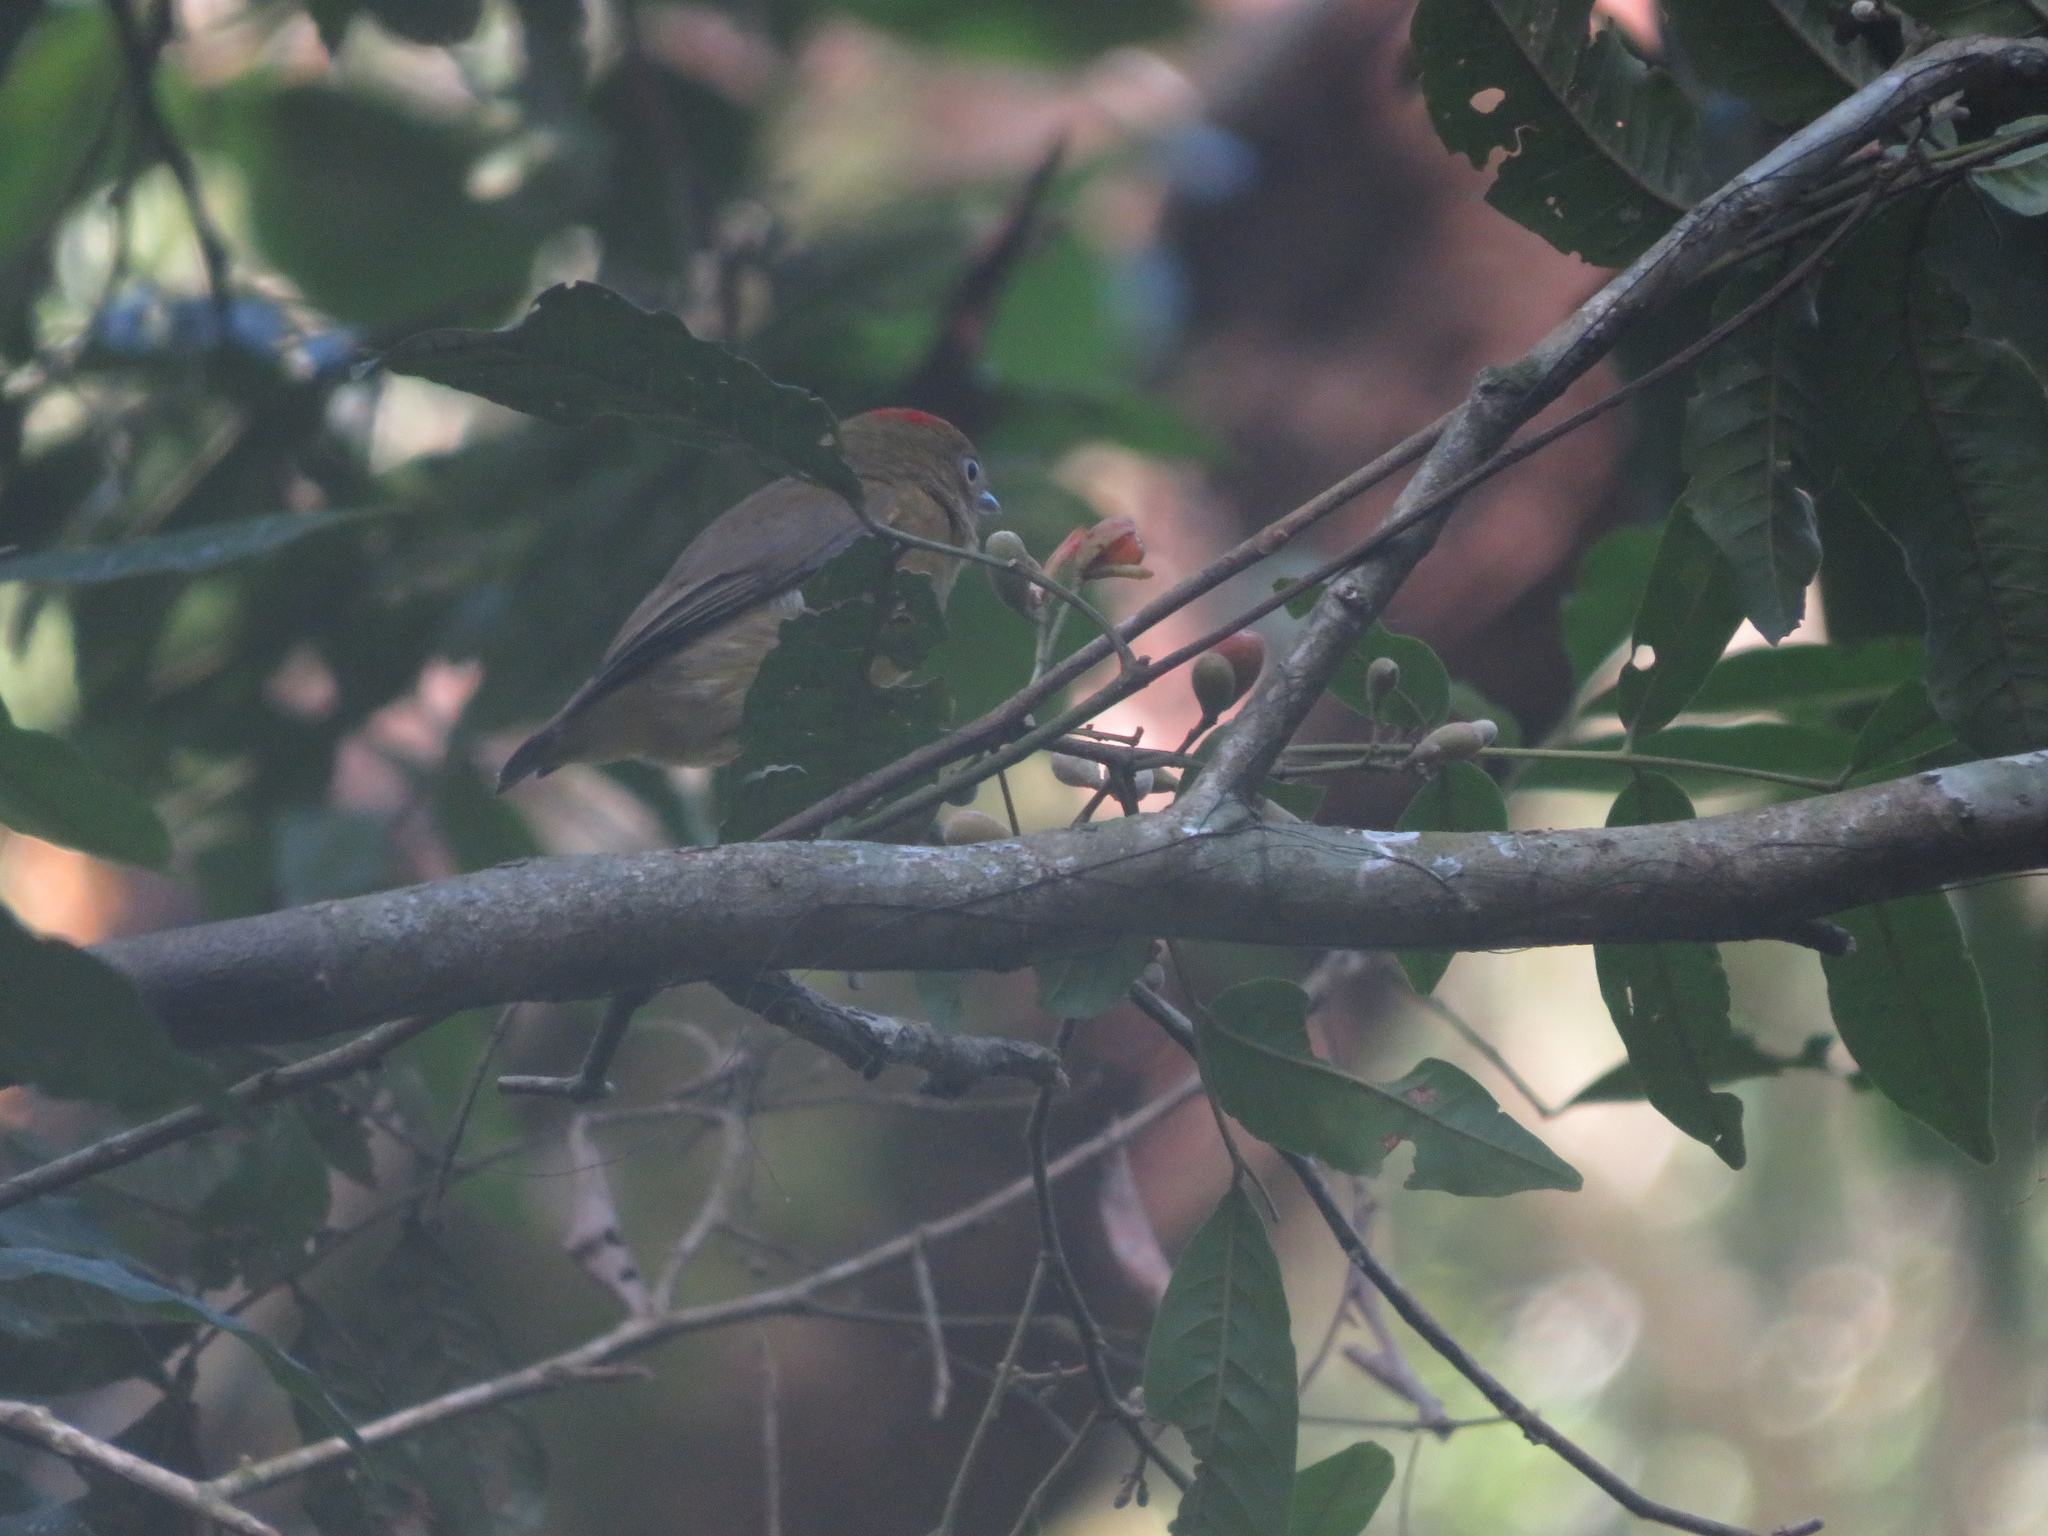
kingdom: Animalia
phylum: Chordata
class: Aves
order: Passeriformes
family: Pipridae
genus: Pipra
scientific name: Pipra fasciicauda
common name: Band-tailed manakin
